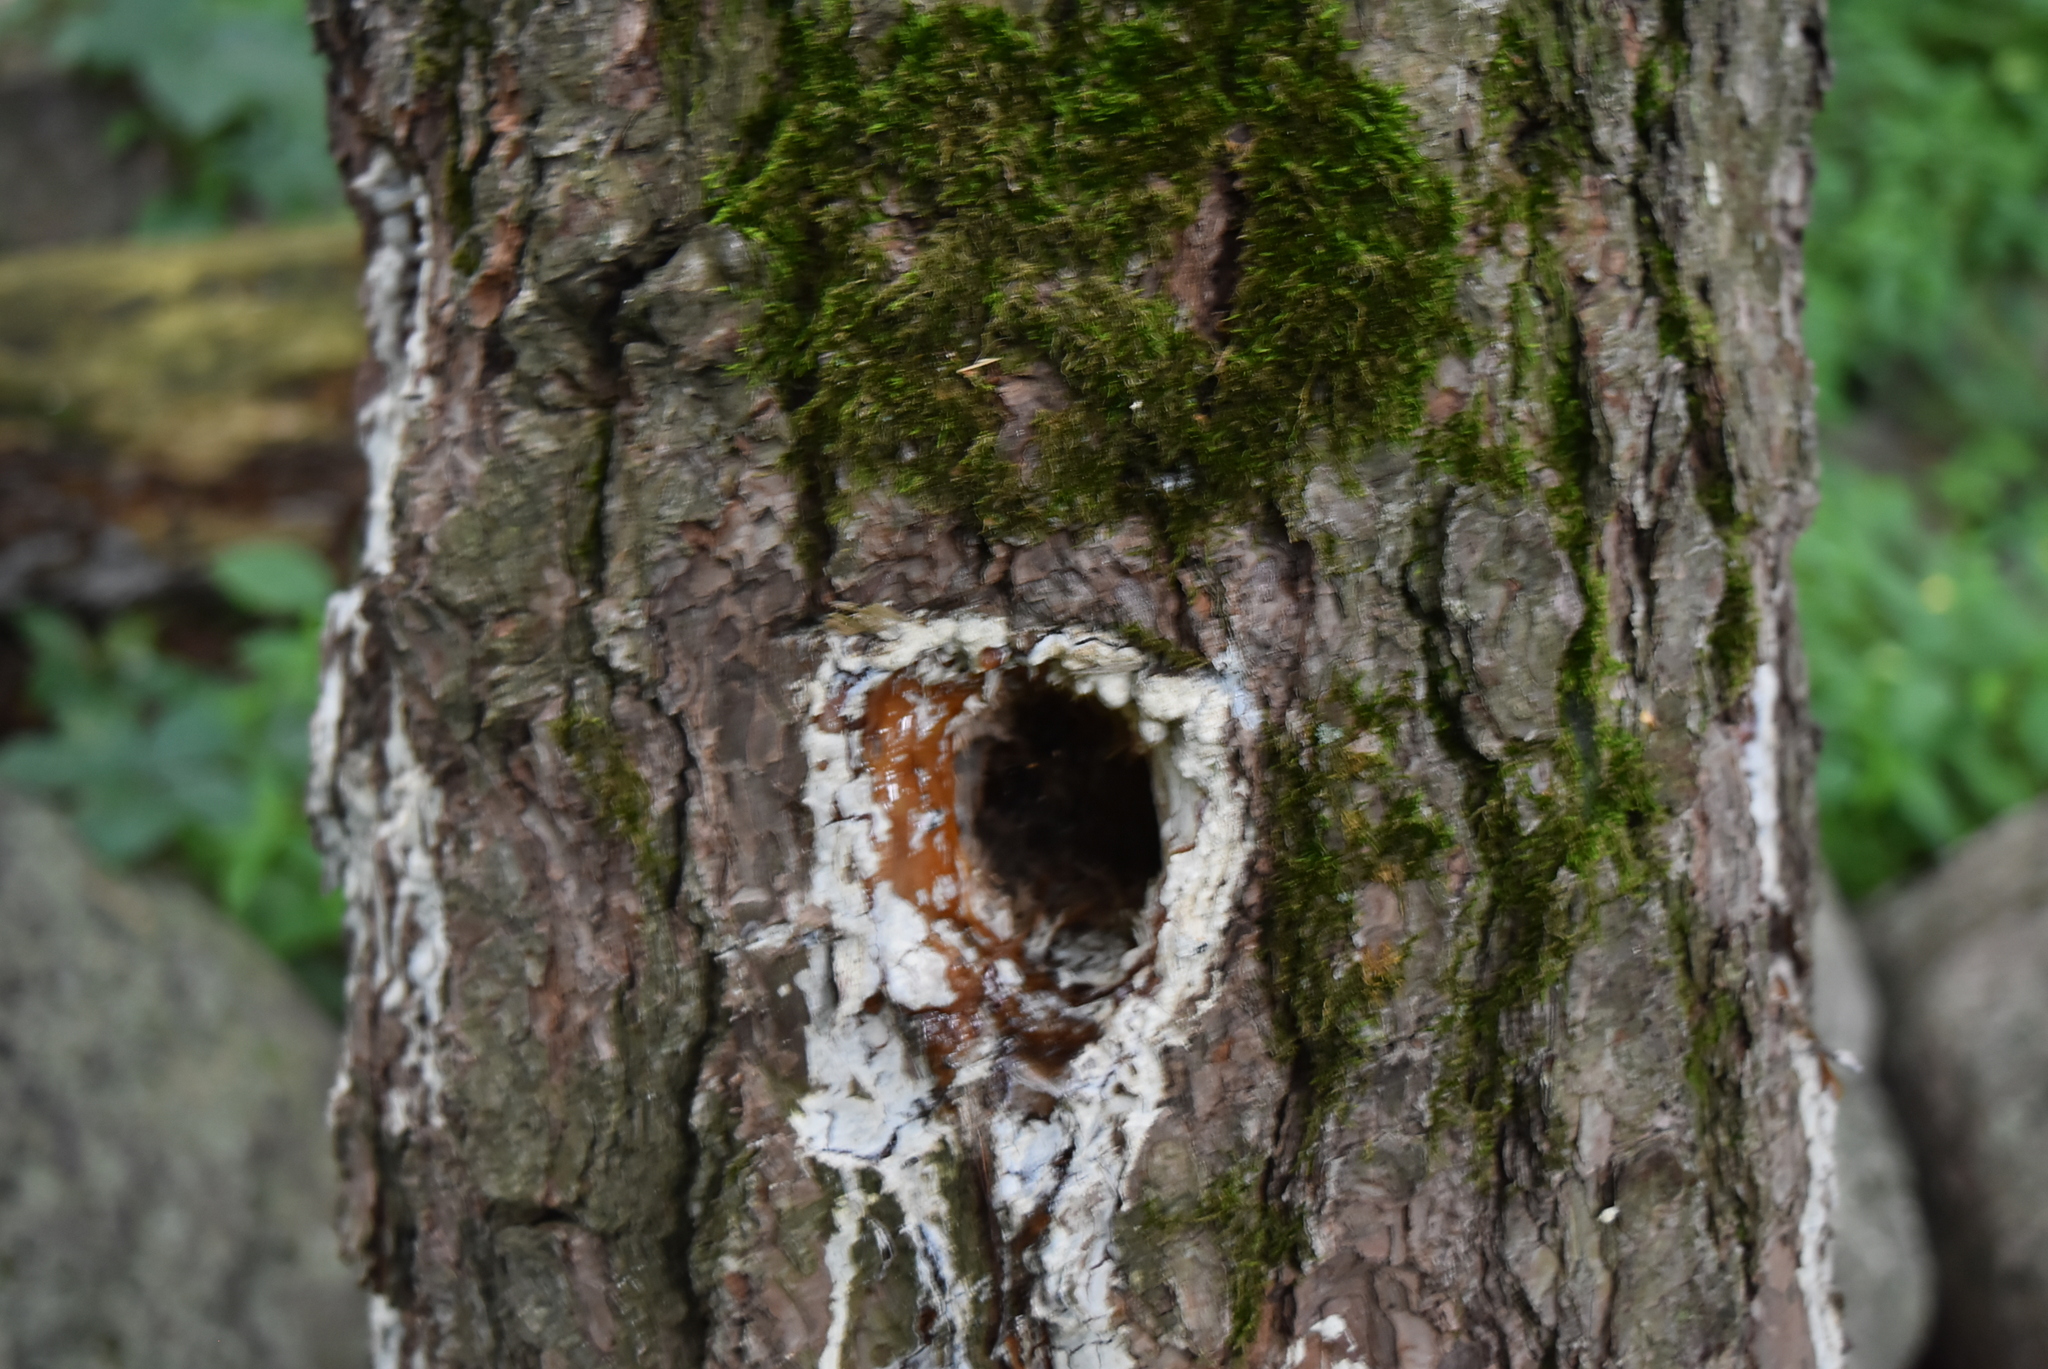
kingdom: Animalia
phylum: Chordata
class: Aves
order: Piciformes
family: Picidae
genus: Dryocopus
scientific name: Dryocopus pileatus
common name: Pileated woodpecker
